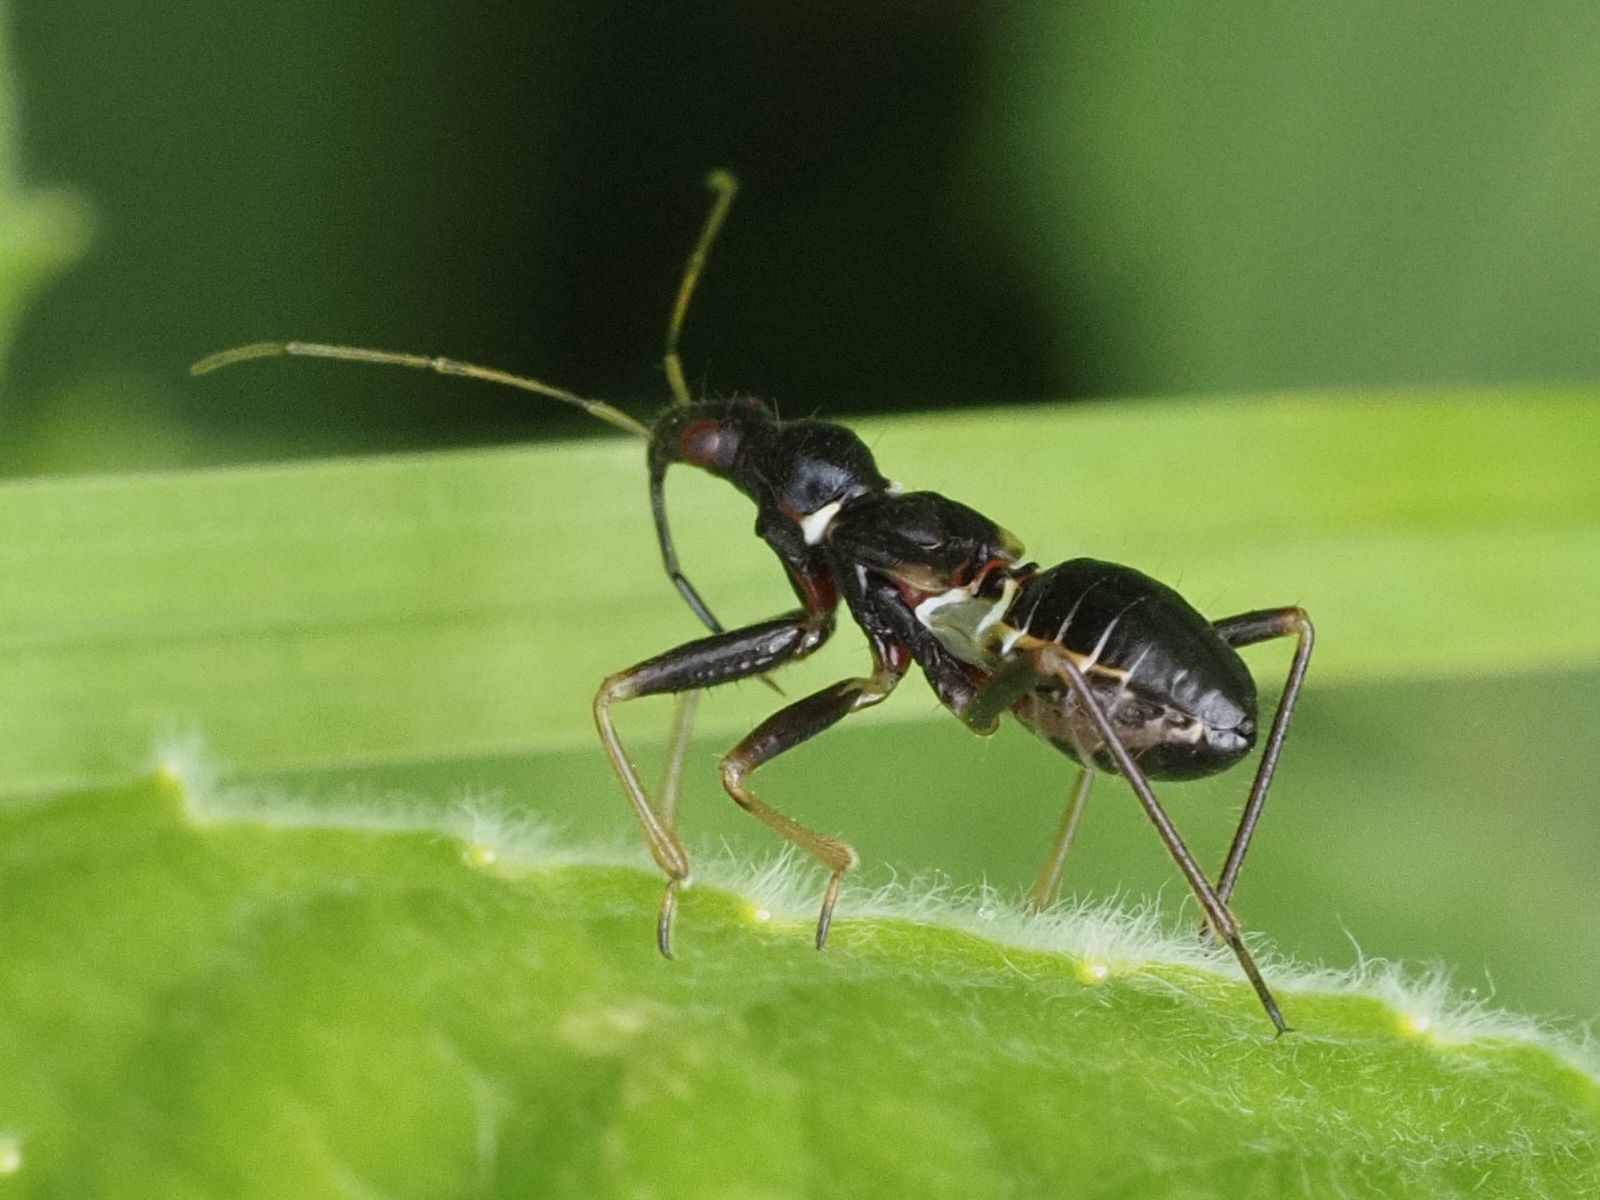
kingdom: Animalia
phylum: Arthropoda
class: Insecta
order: Hemiptera
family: Nabidae
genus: Himacerus
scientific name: Himacerus mirmicoides
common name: Ant damsel bug
